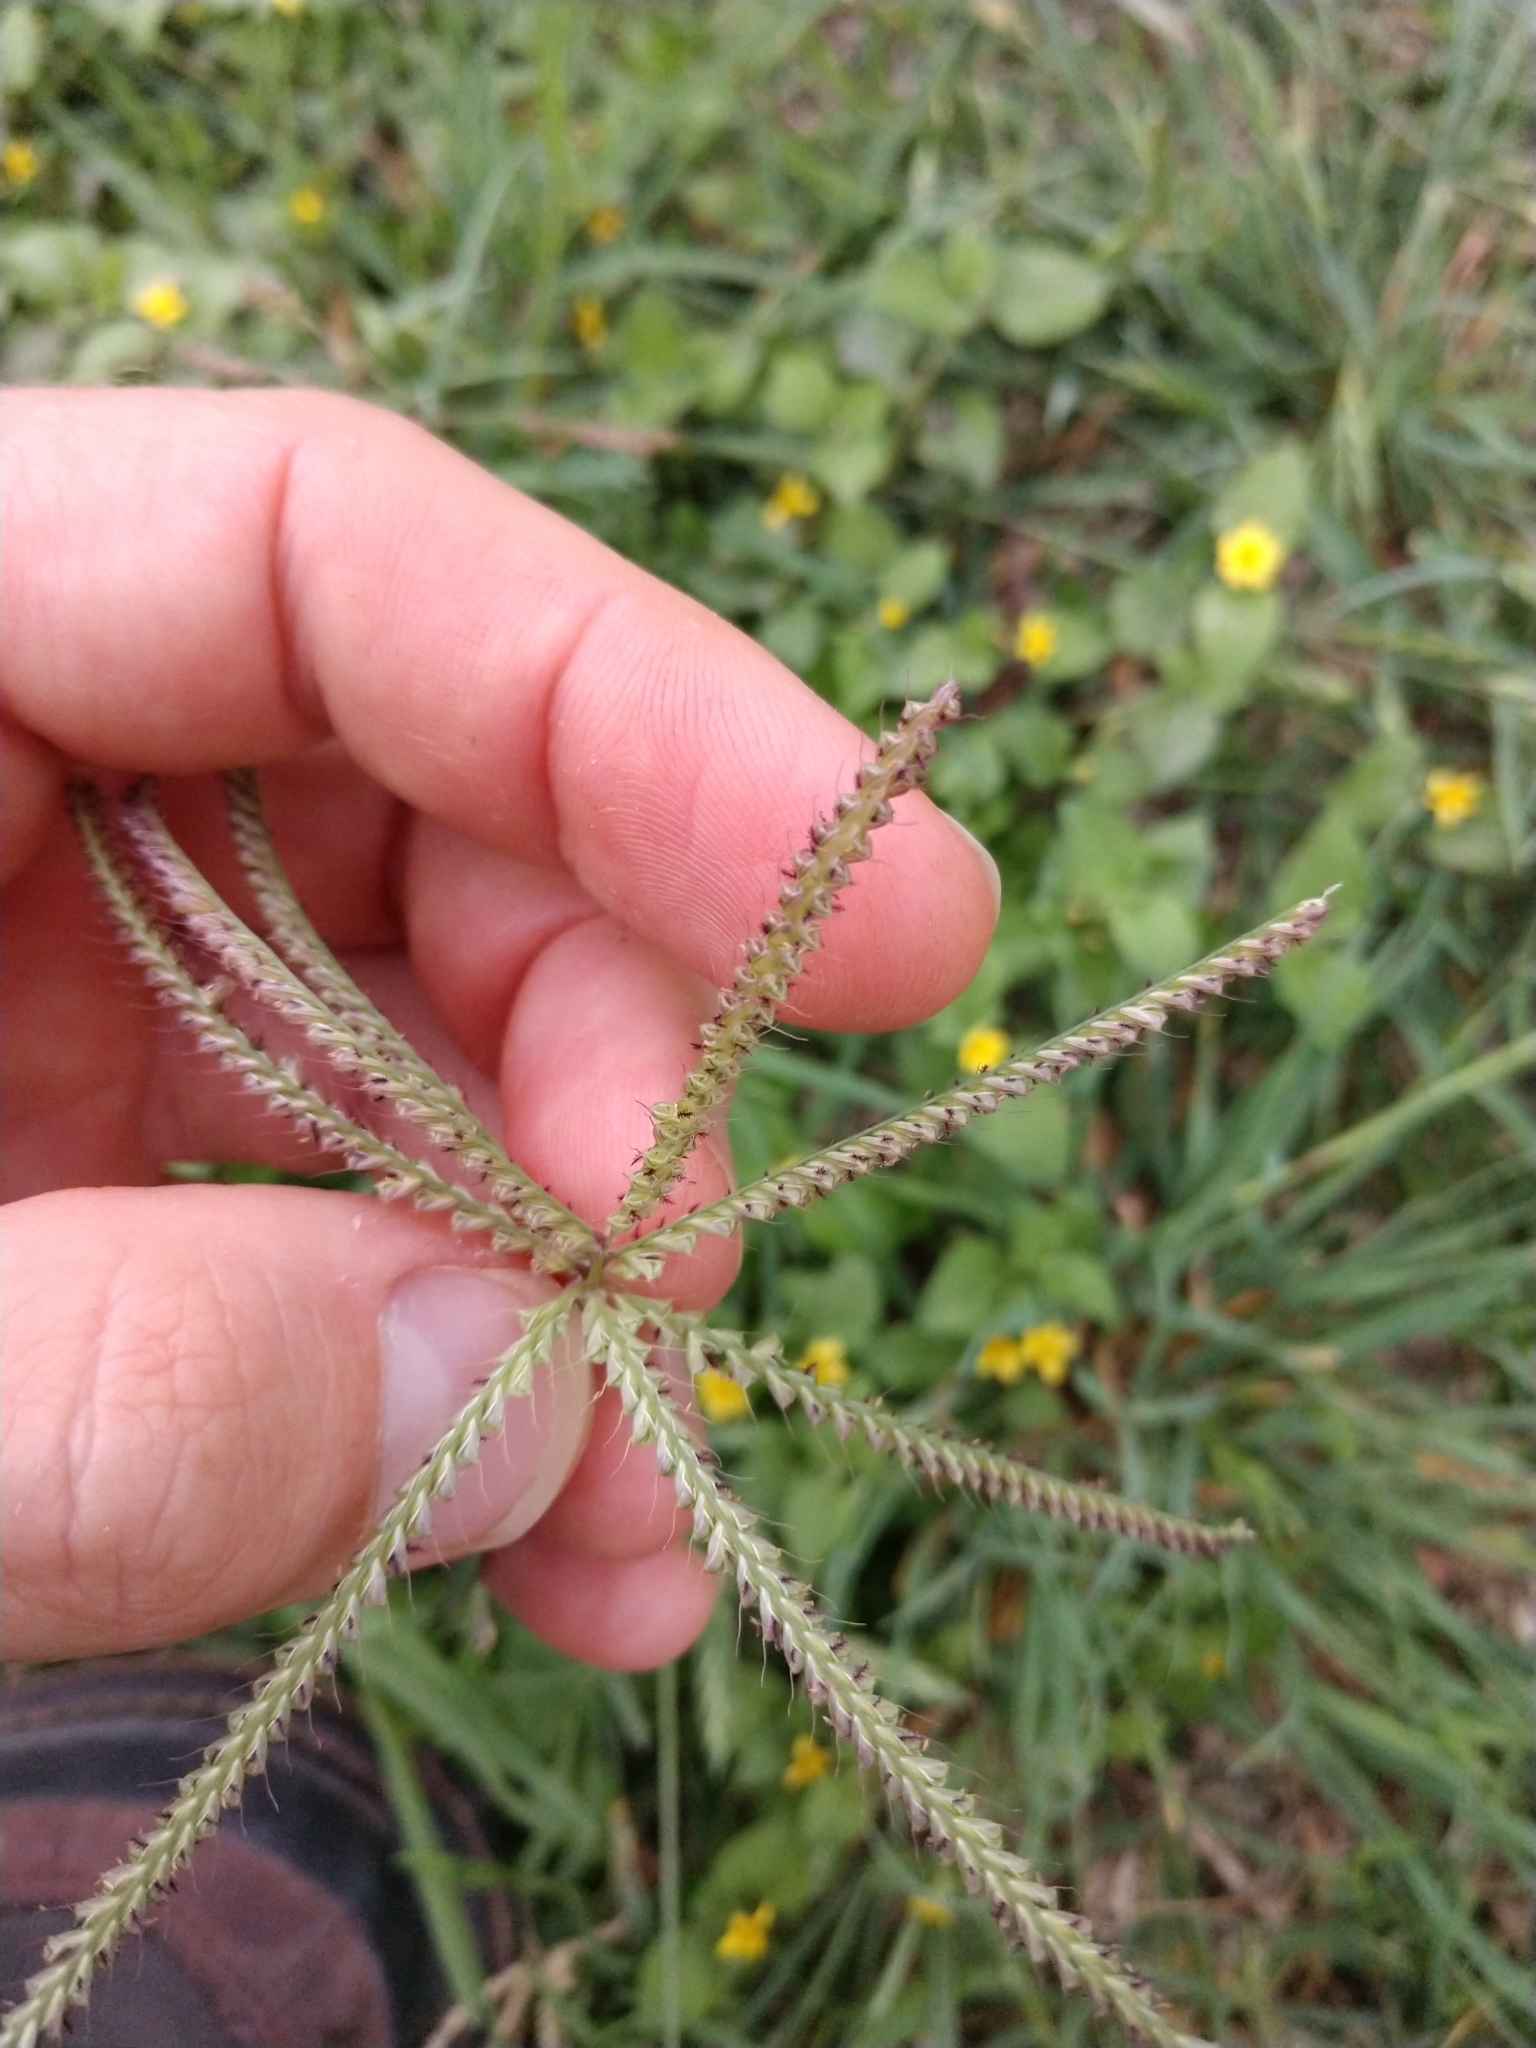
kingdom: Plantae
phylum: Tracheophyta
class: Liliopsida
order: Poales
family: Poaceae
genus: Chloris
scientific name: Chloris cucullata
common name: Hooded windmill grass
